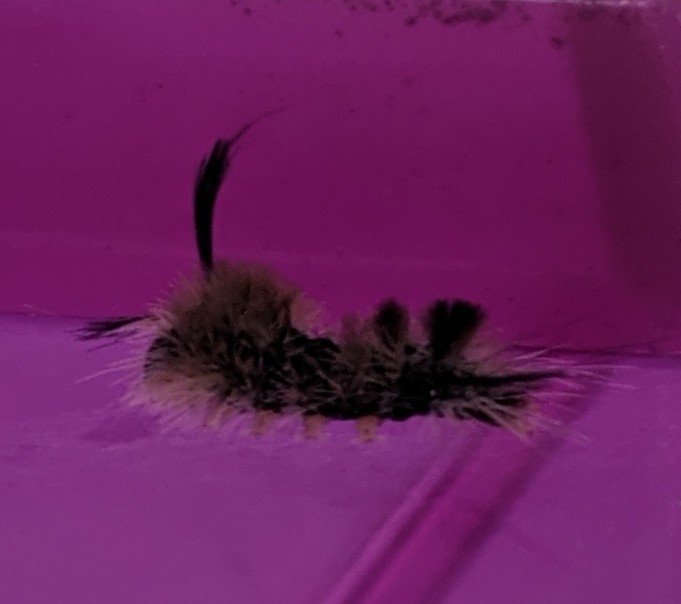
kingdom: Animalia
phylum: Arthropoda
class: Insecta
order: Lepidoptera
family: Erebidae
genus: Halysidota
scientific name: Halysidota tessellaris
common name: Banded tussock moth
